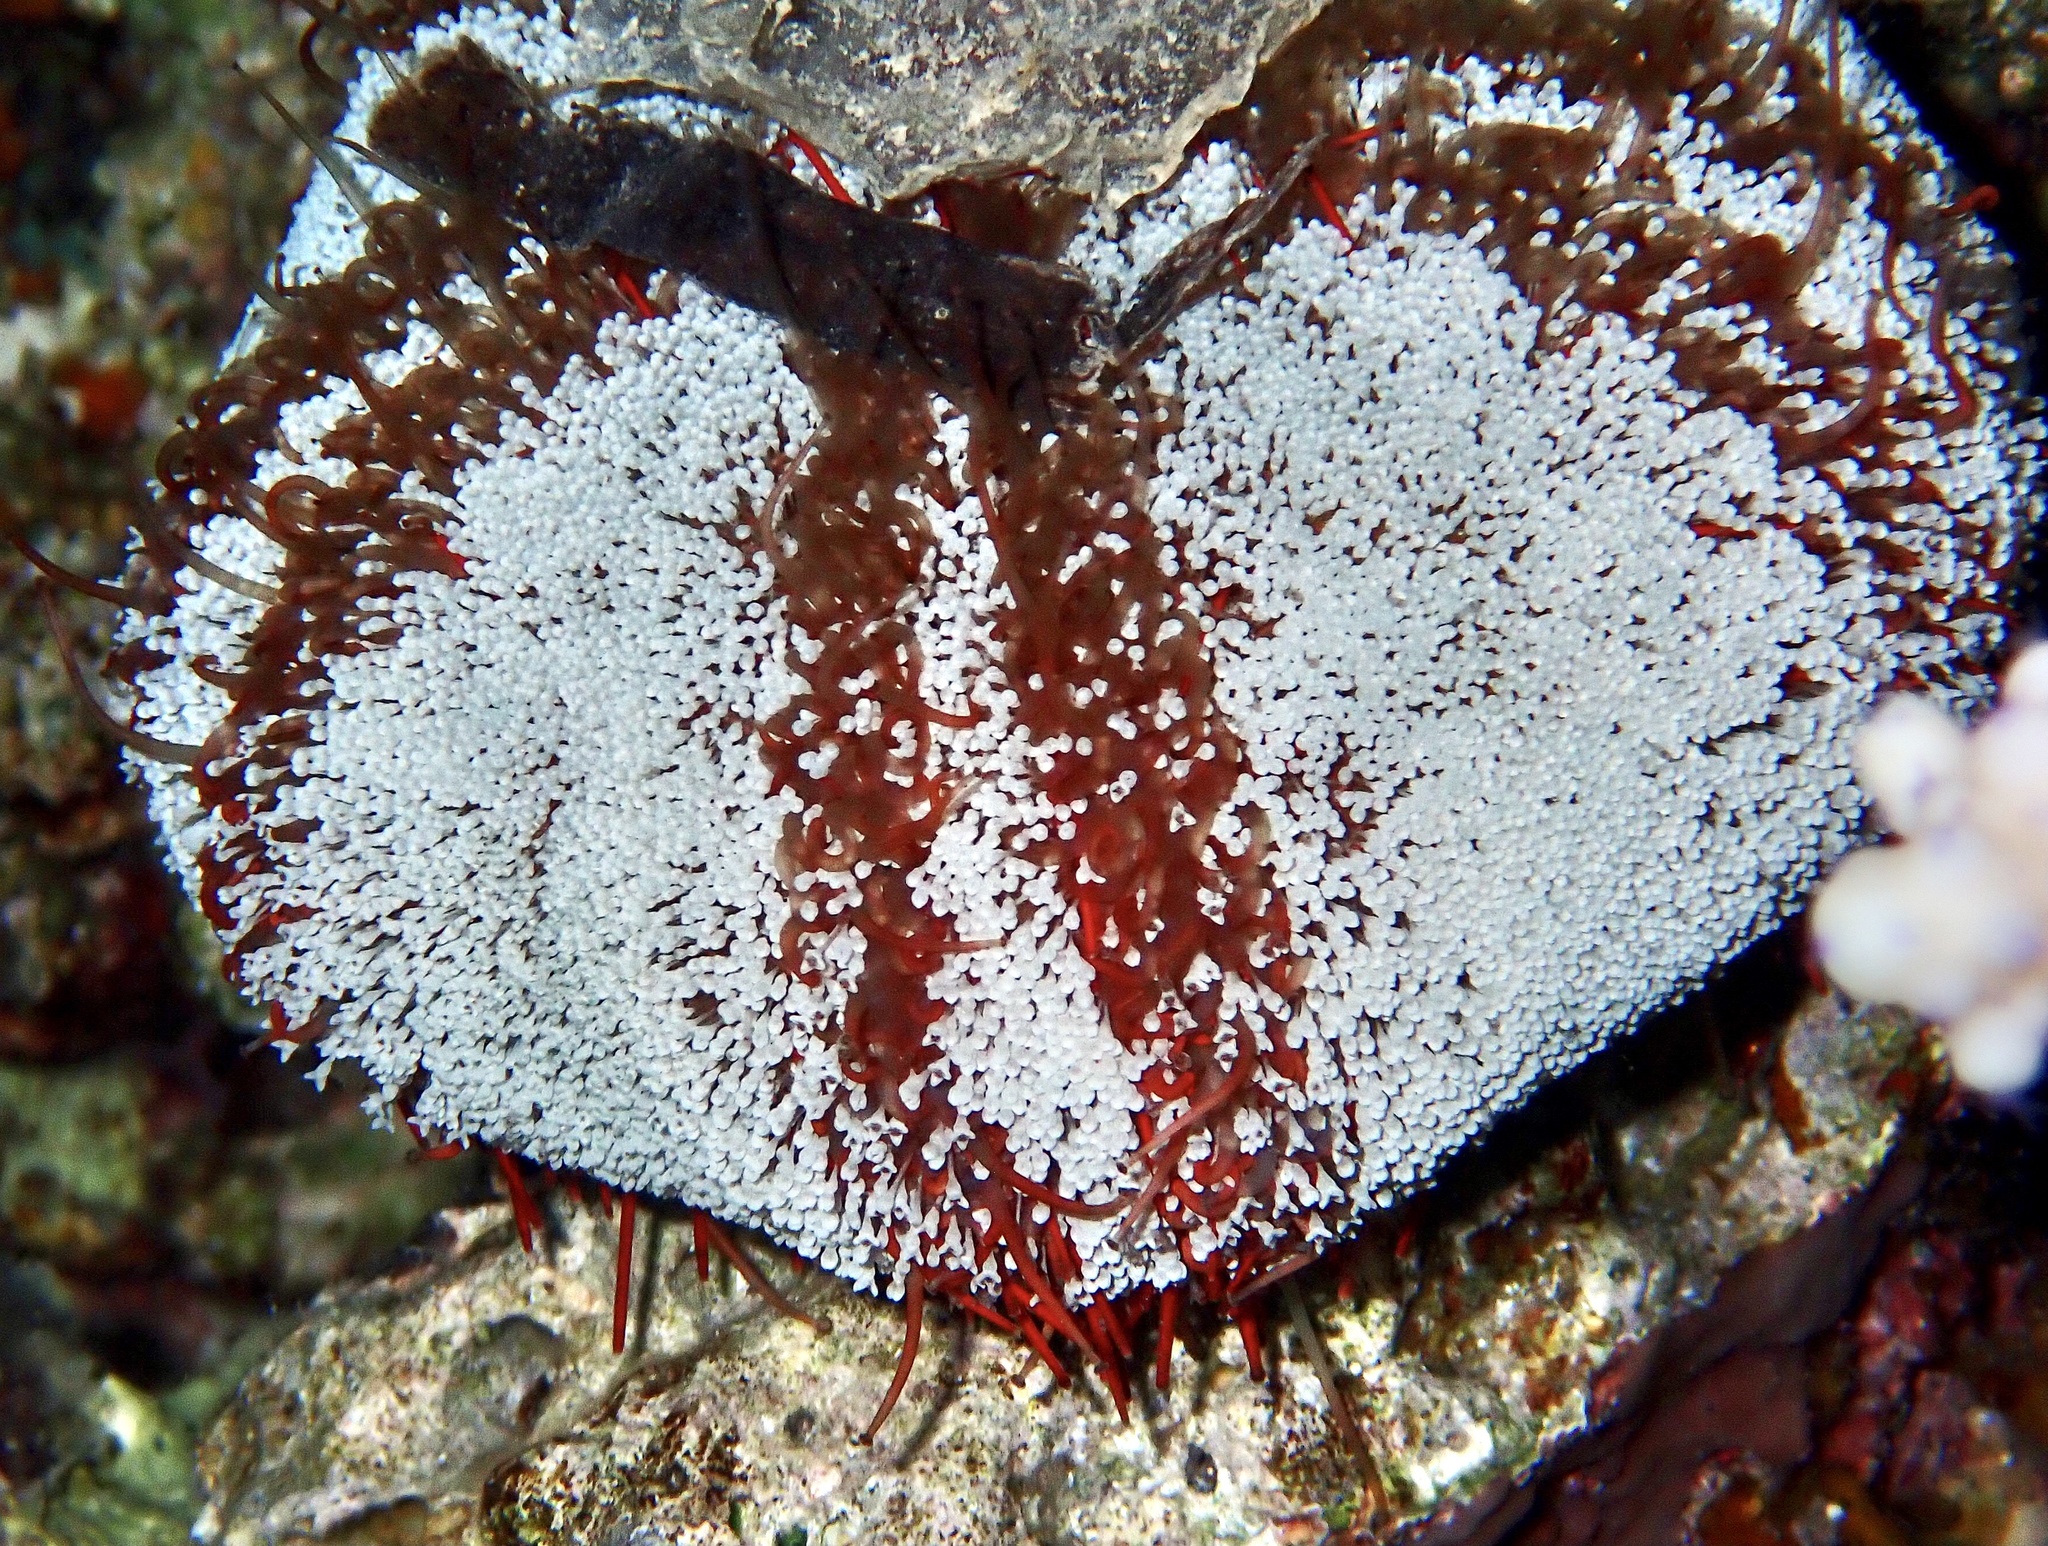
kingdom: Animalia
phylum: Echinodermata
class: Echinoidea
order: Camarodonta
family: Toxopneustidae
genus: Tripneustes
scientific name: Tripneustes gratilla
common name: Bischofsmützenseeigel
